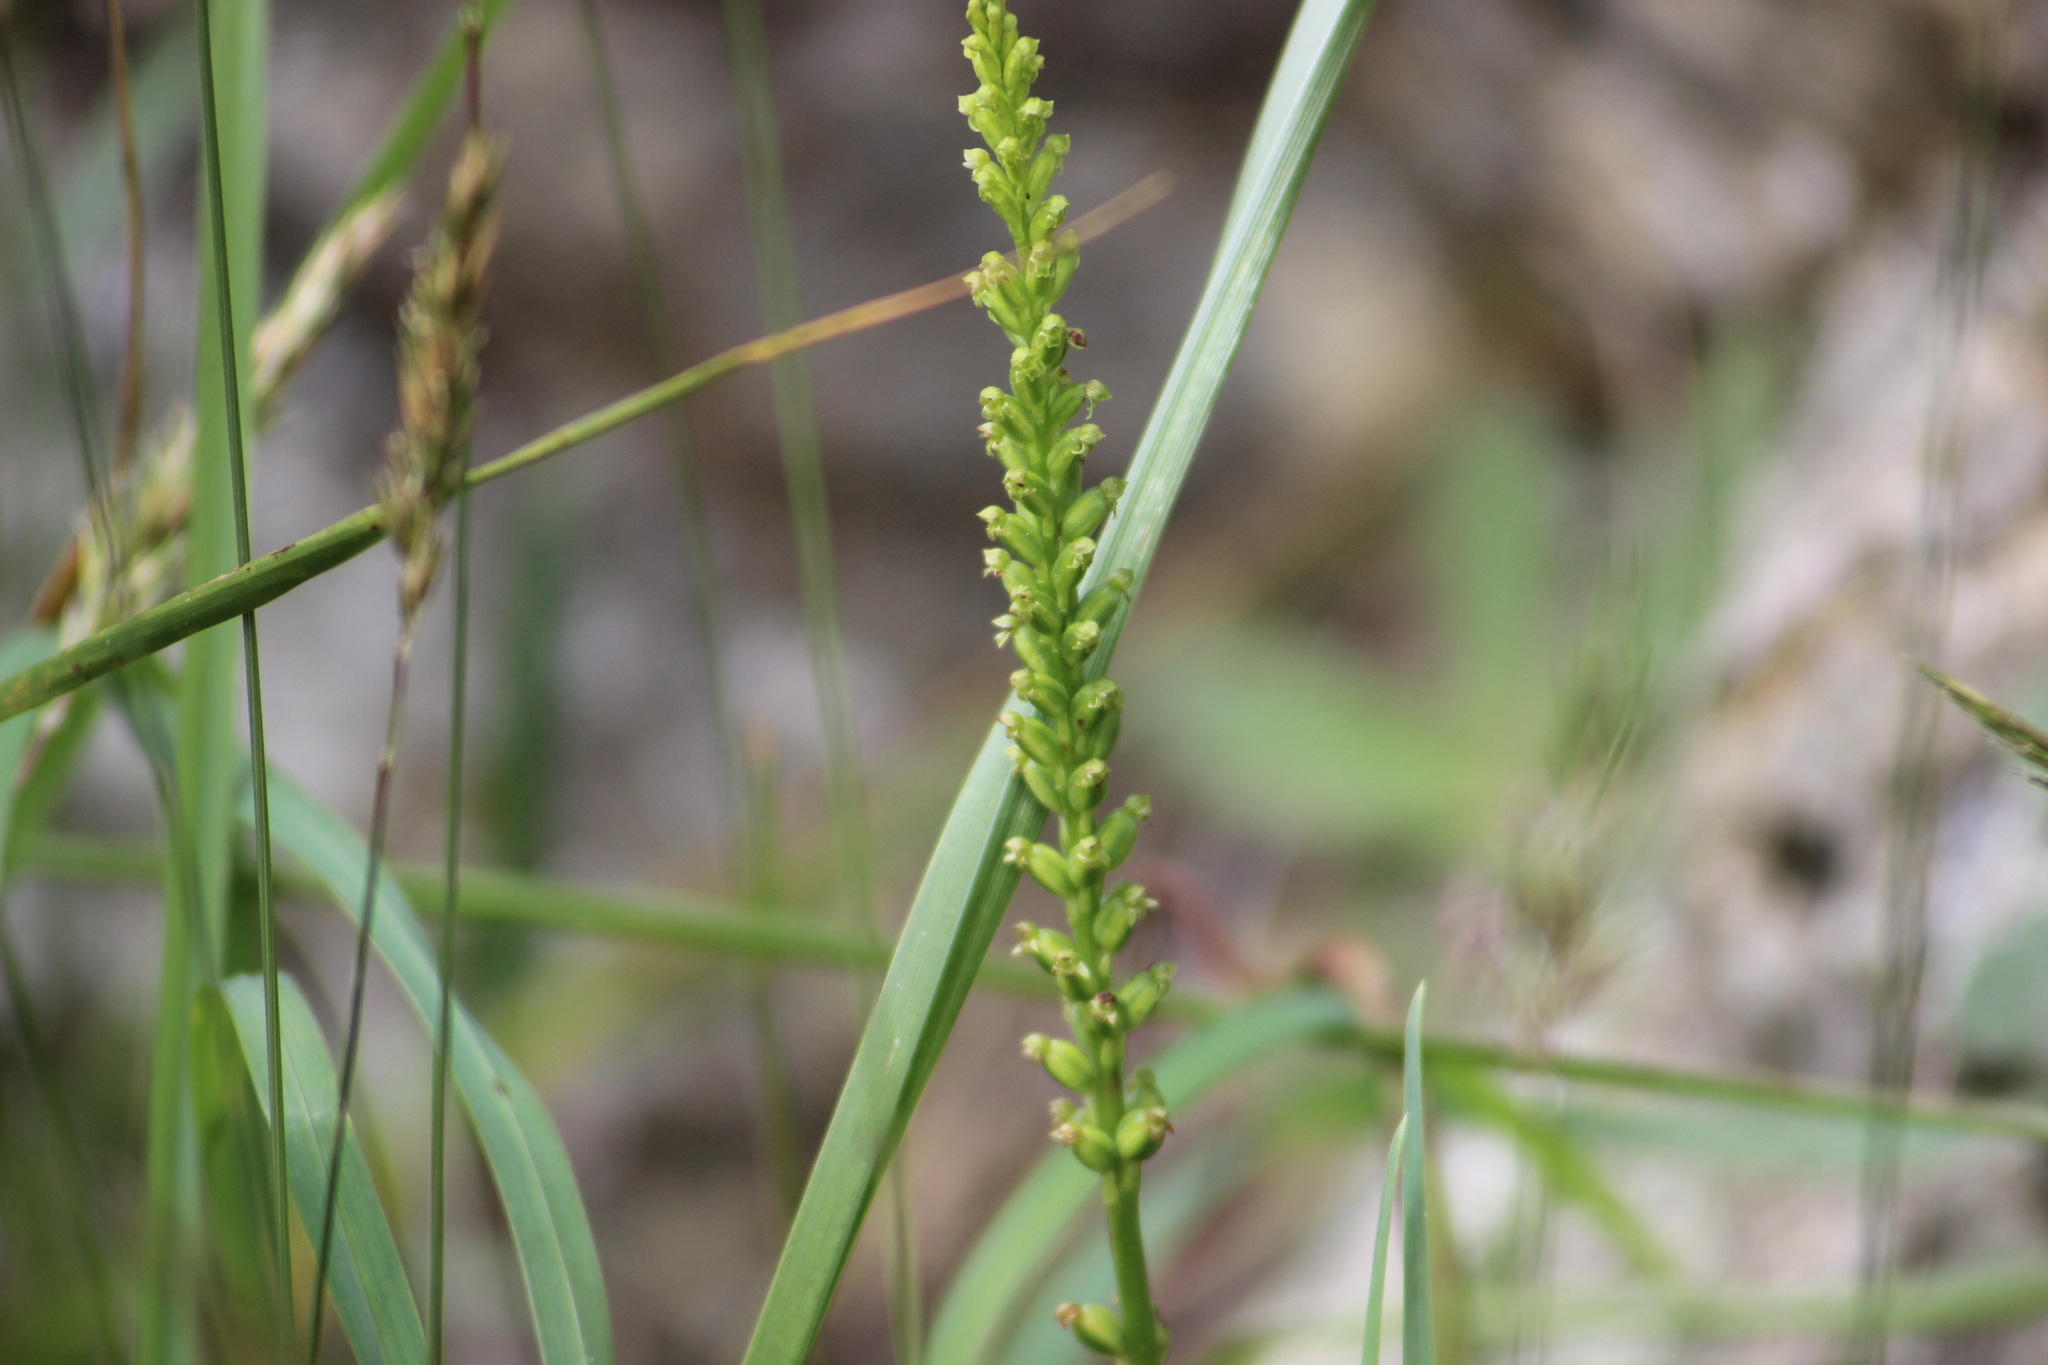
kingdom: Plantae
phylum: Tracheophyta
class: Liliopsida
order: Asparagales
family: Orchidaceae
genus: Microtis
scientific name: Microtis unifolia
